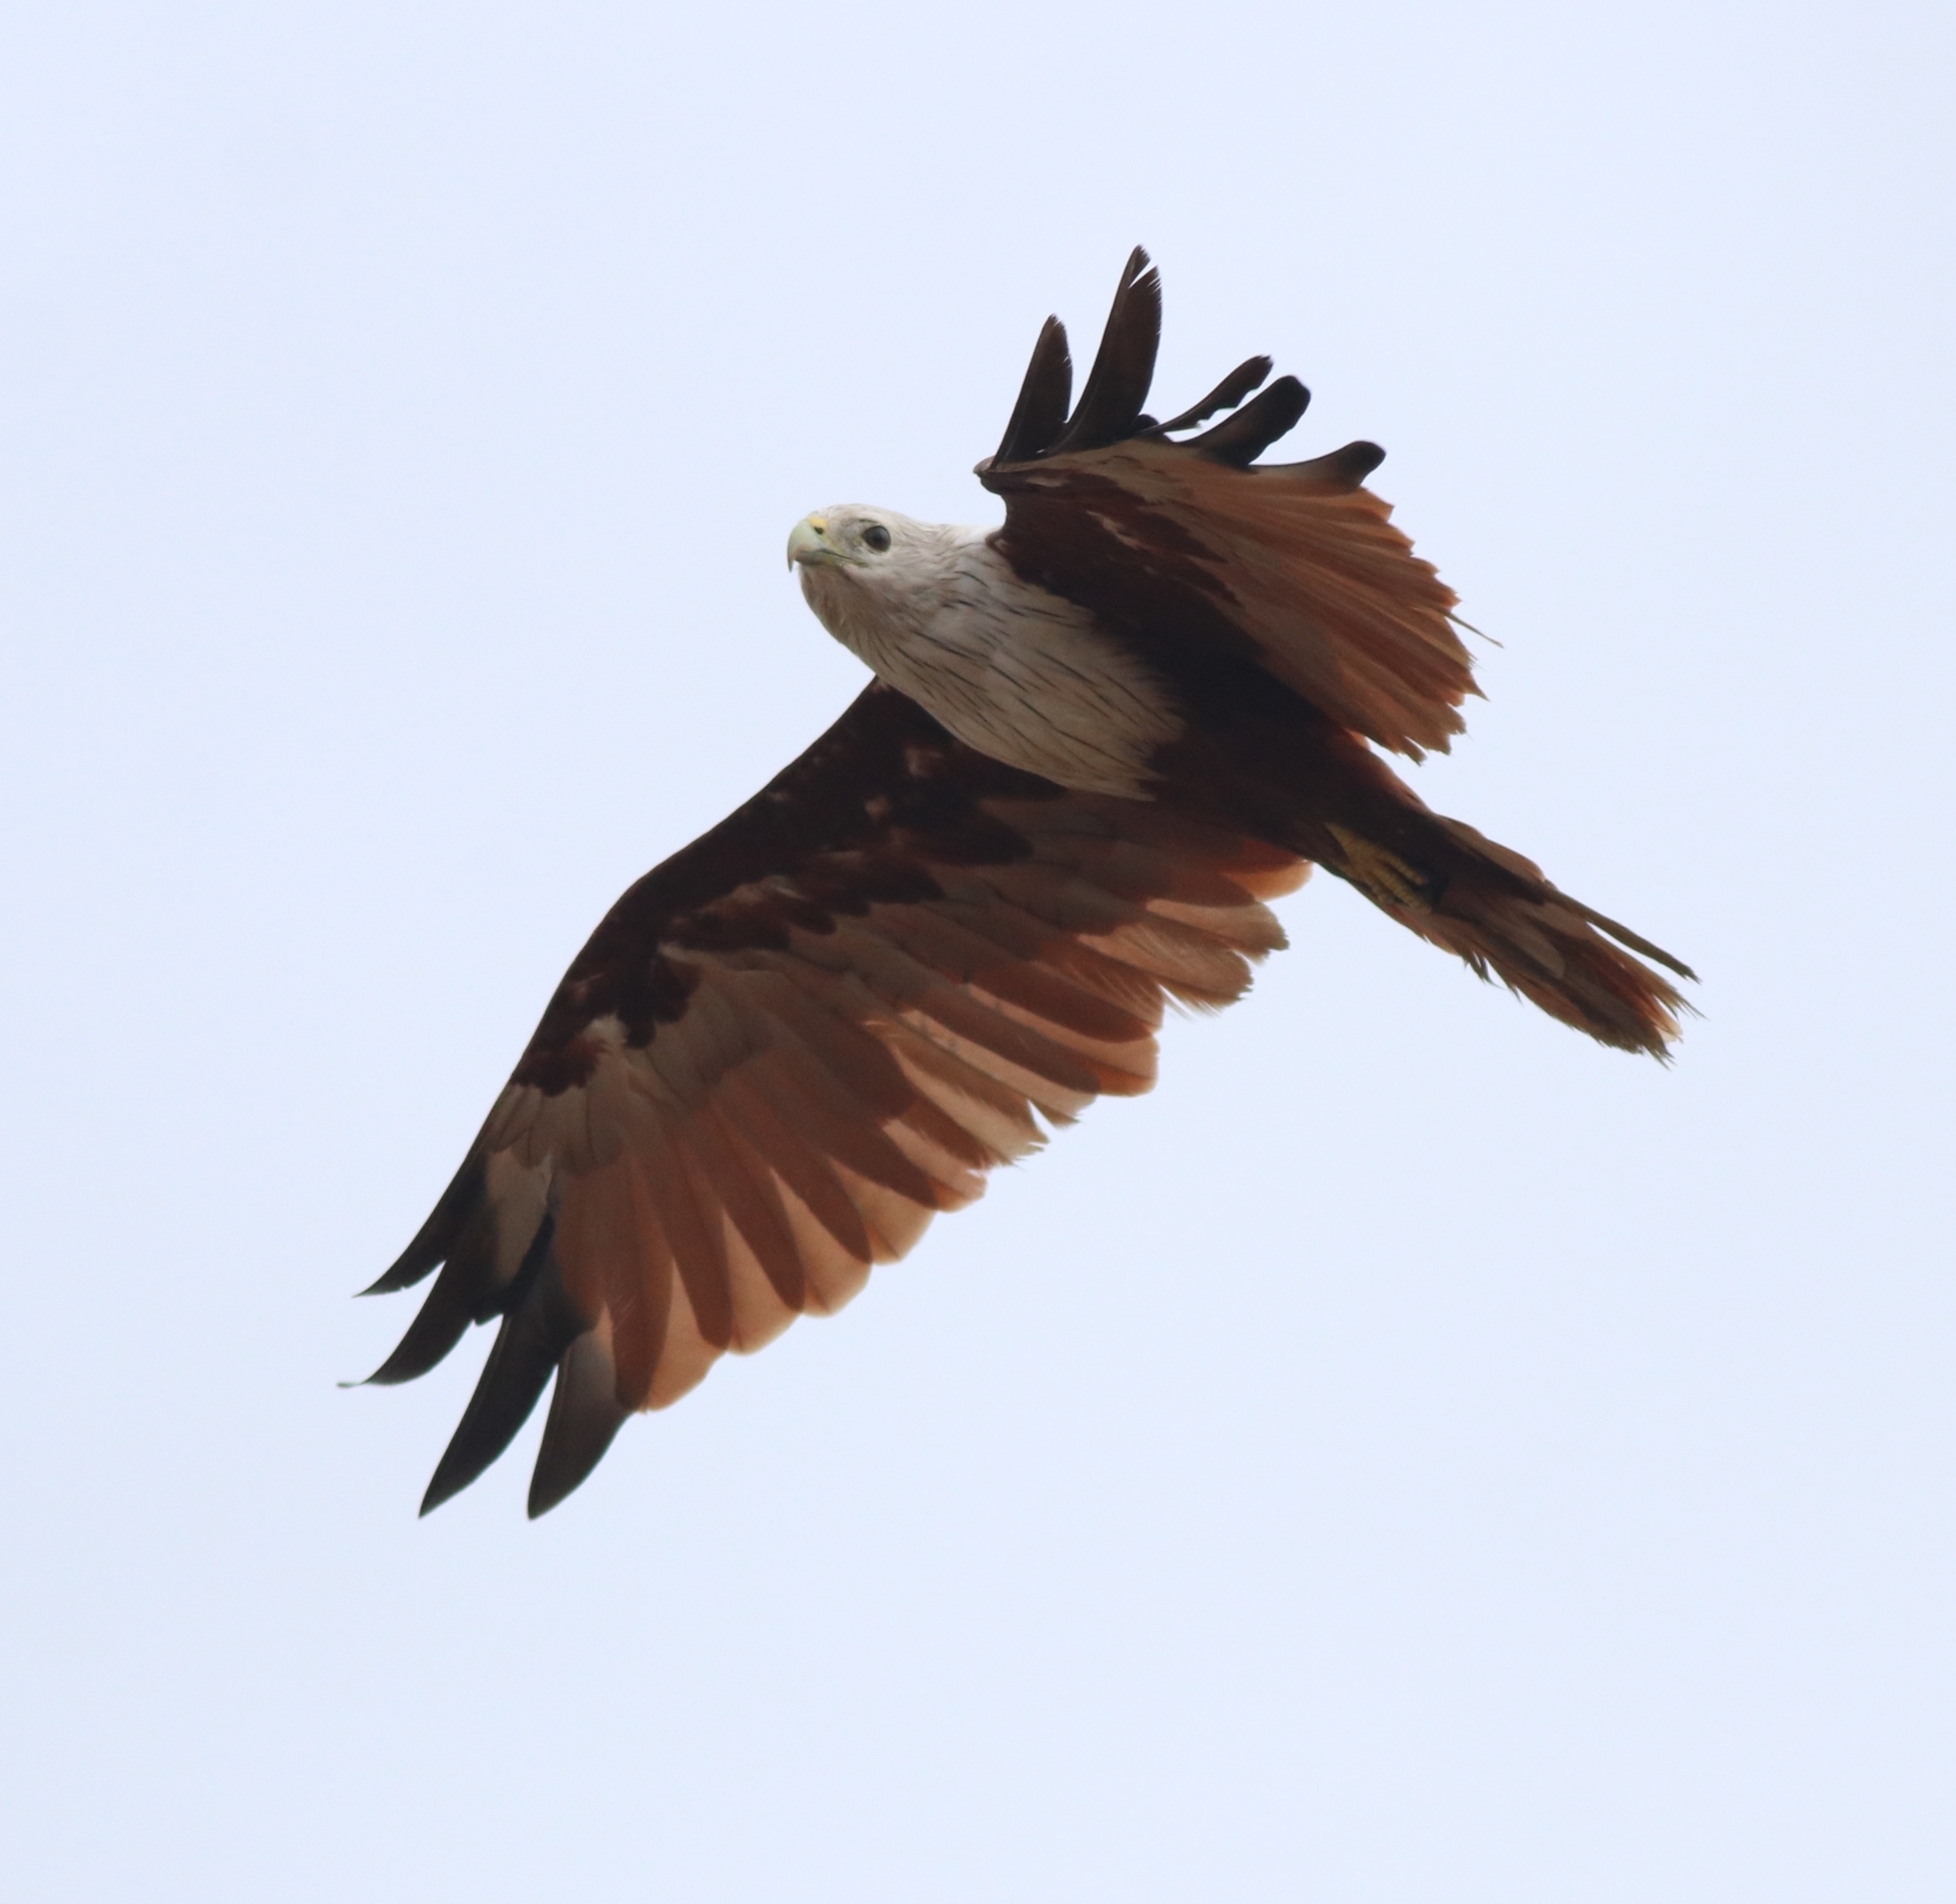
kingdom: Animalia
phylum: Chordata
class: Aves
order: Accipitriformes
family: Accipitridae
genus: Haliastur
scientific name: Haliastur indus
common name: Brahminy kite
